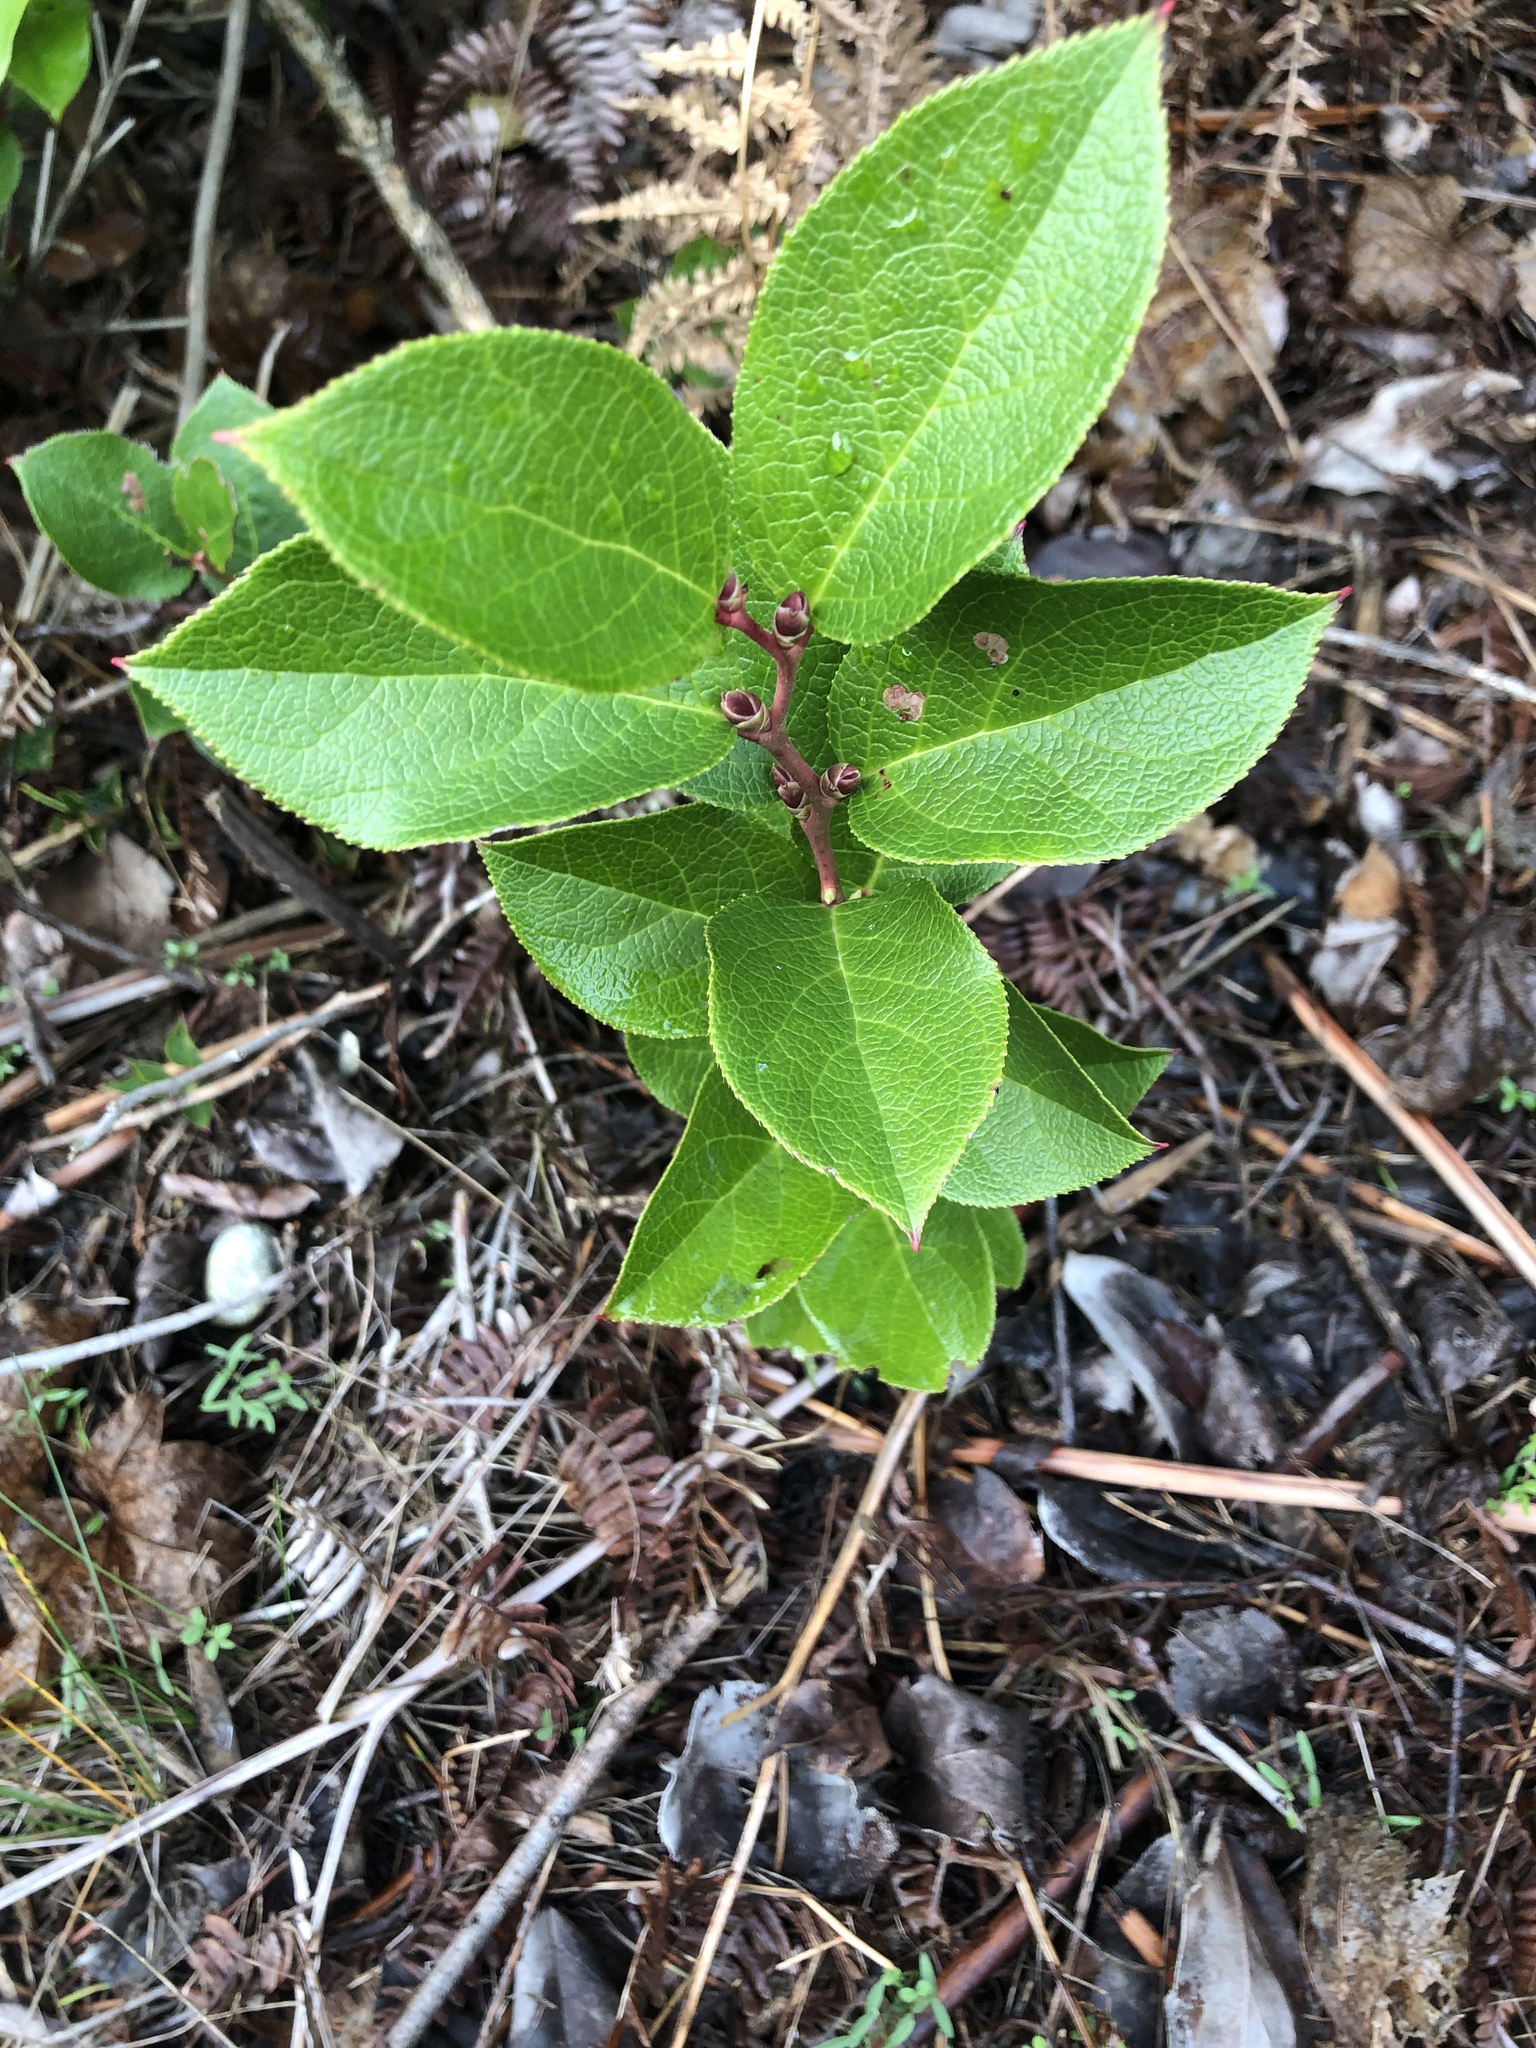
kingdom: Plantae
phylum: Tracheophyta
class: Magnoliopsida
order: Ericales
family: Ericaceae
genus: Gaultheria
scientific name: Gaultheria shallon
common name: Shallon
